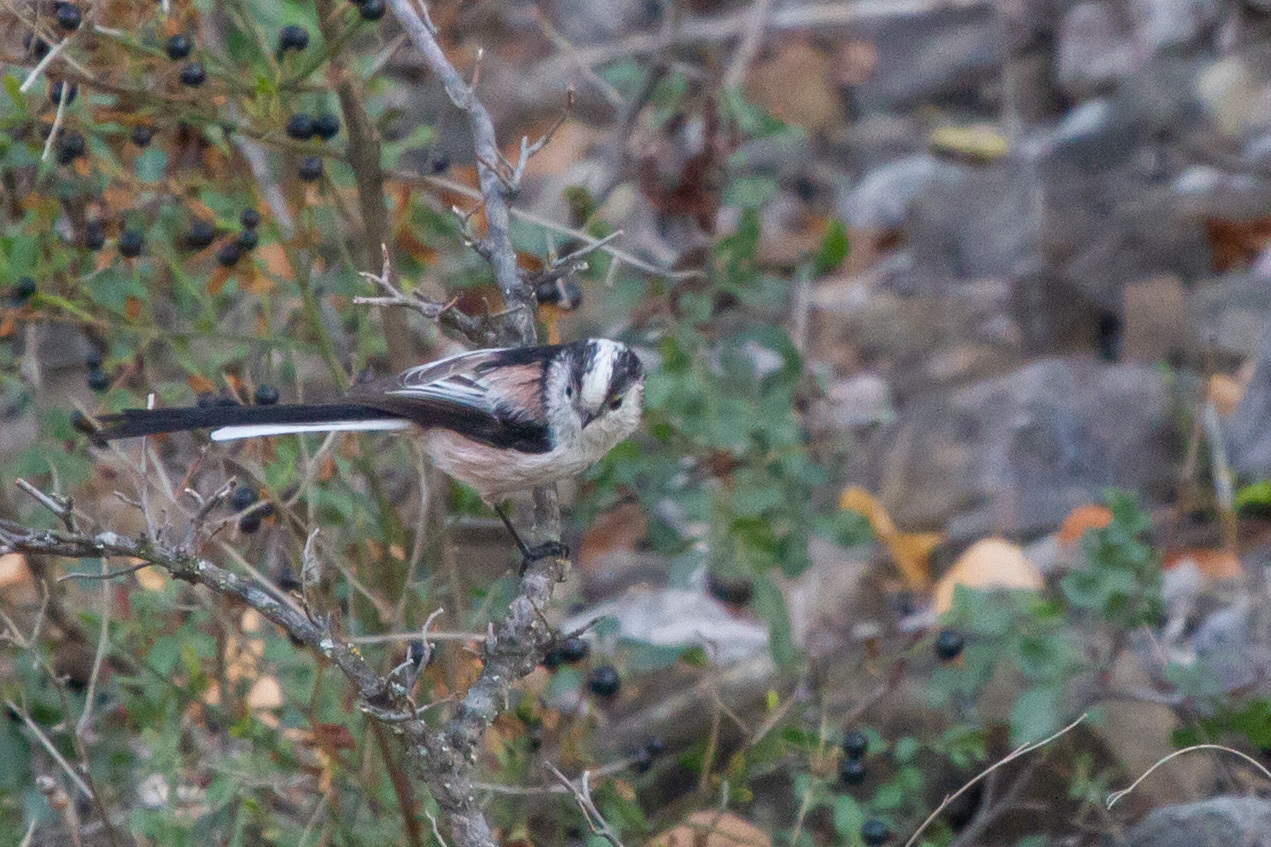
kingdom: Animalia
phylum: Chordata
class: Aves
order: Passeriformes
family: Aegithalidae
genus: Aegithalos
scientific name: Aegithalos caudatus
